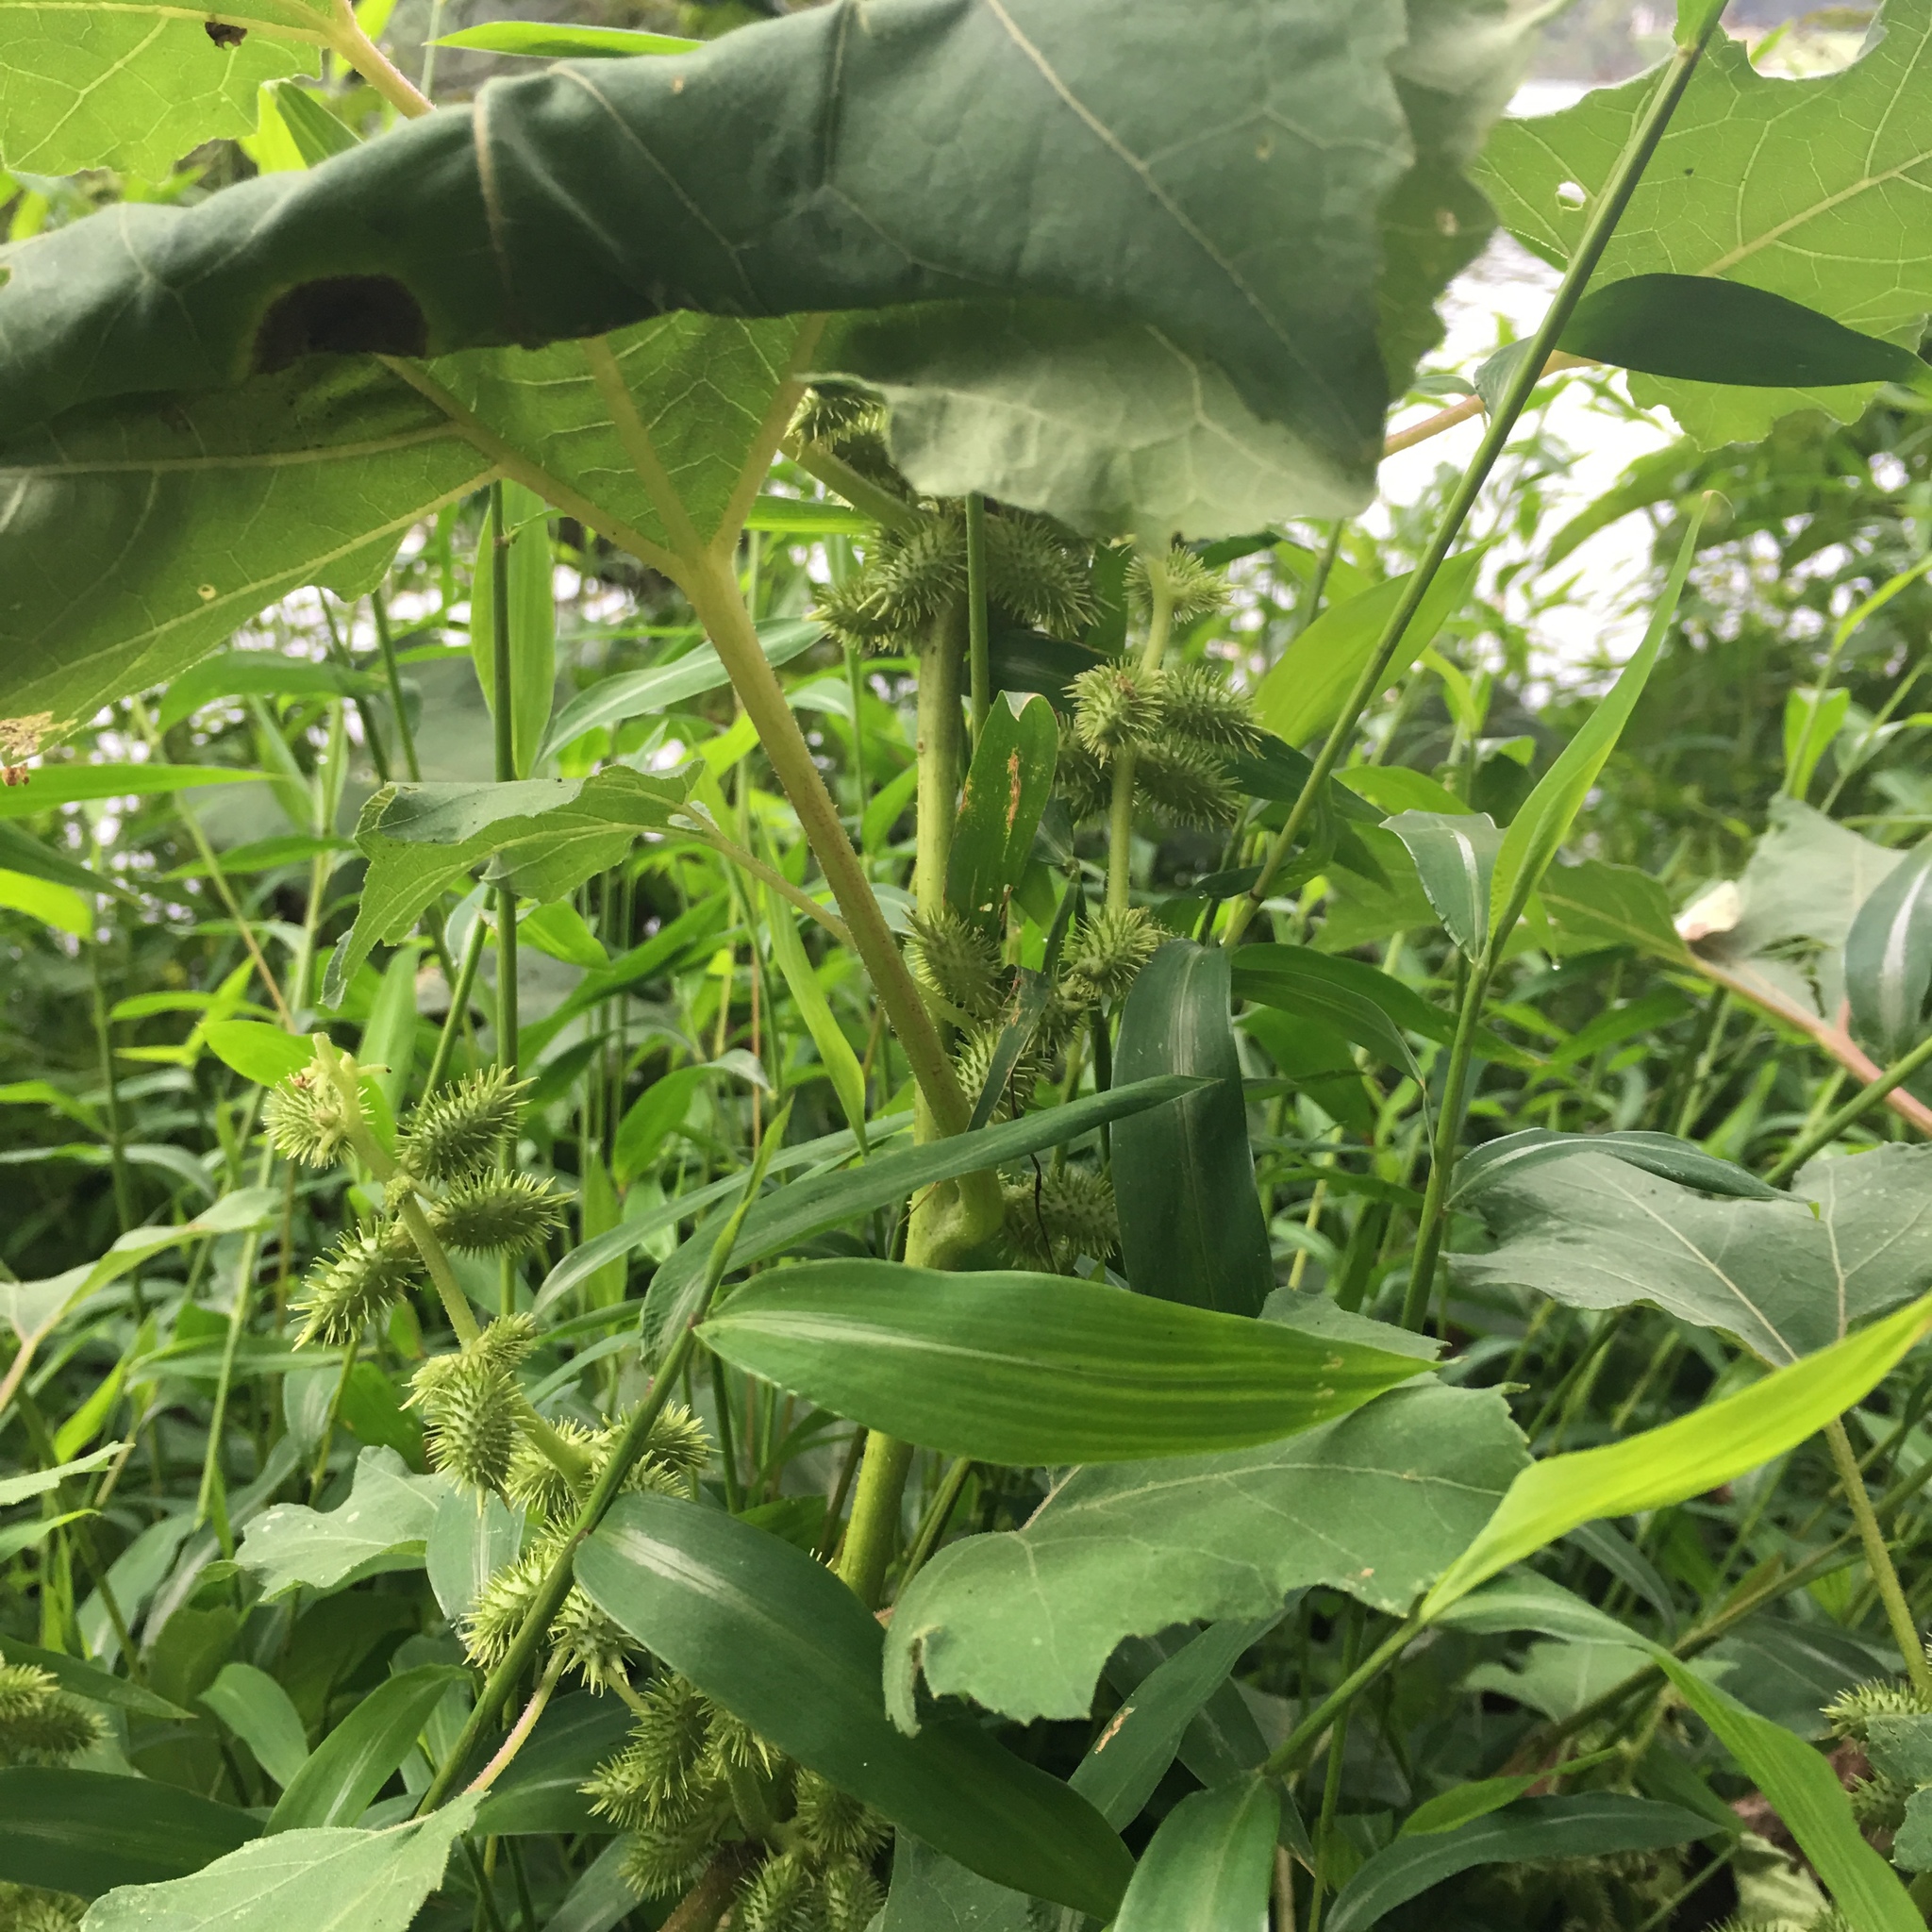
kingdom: Plantae
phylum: Tracheophyta
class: Magnoliopsida
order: Asterales
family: Asteraceae
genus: Xanthium
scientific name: Xanthium strumarium
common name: Rough cocklebur
